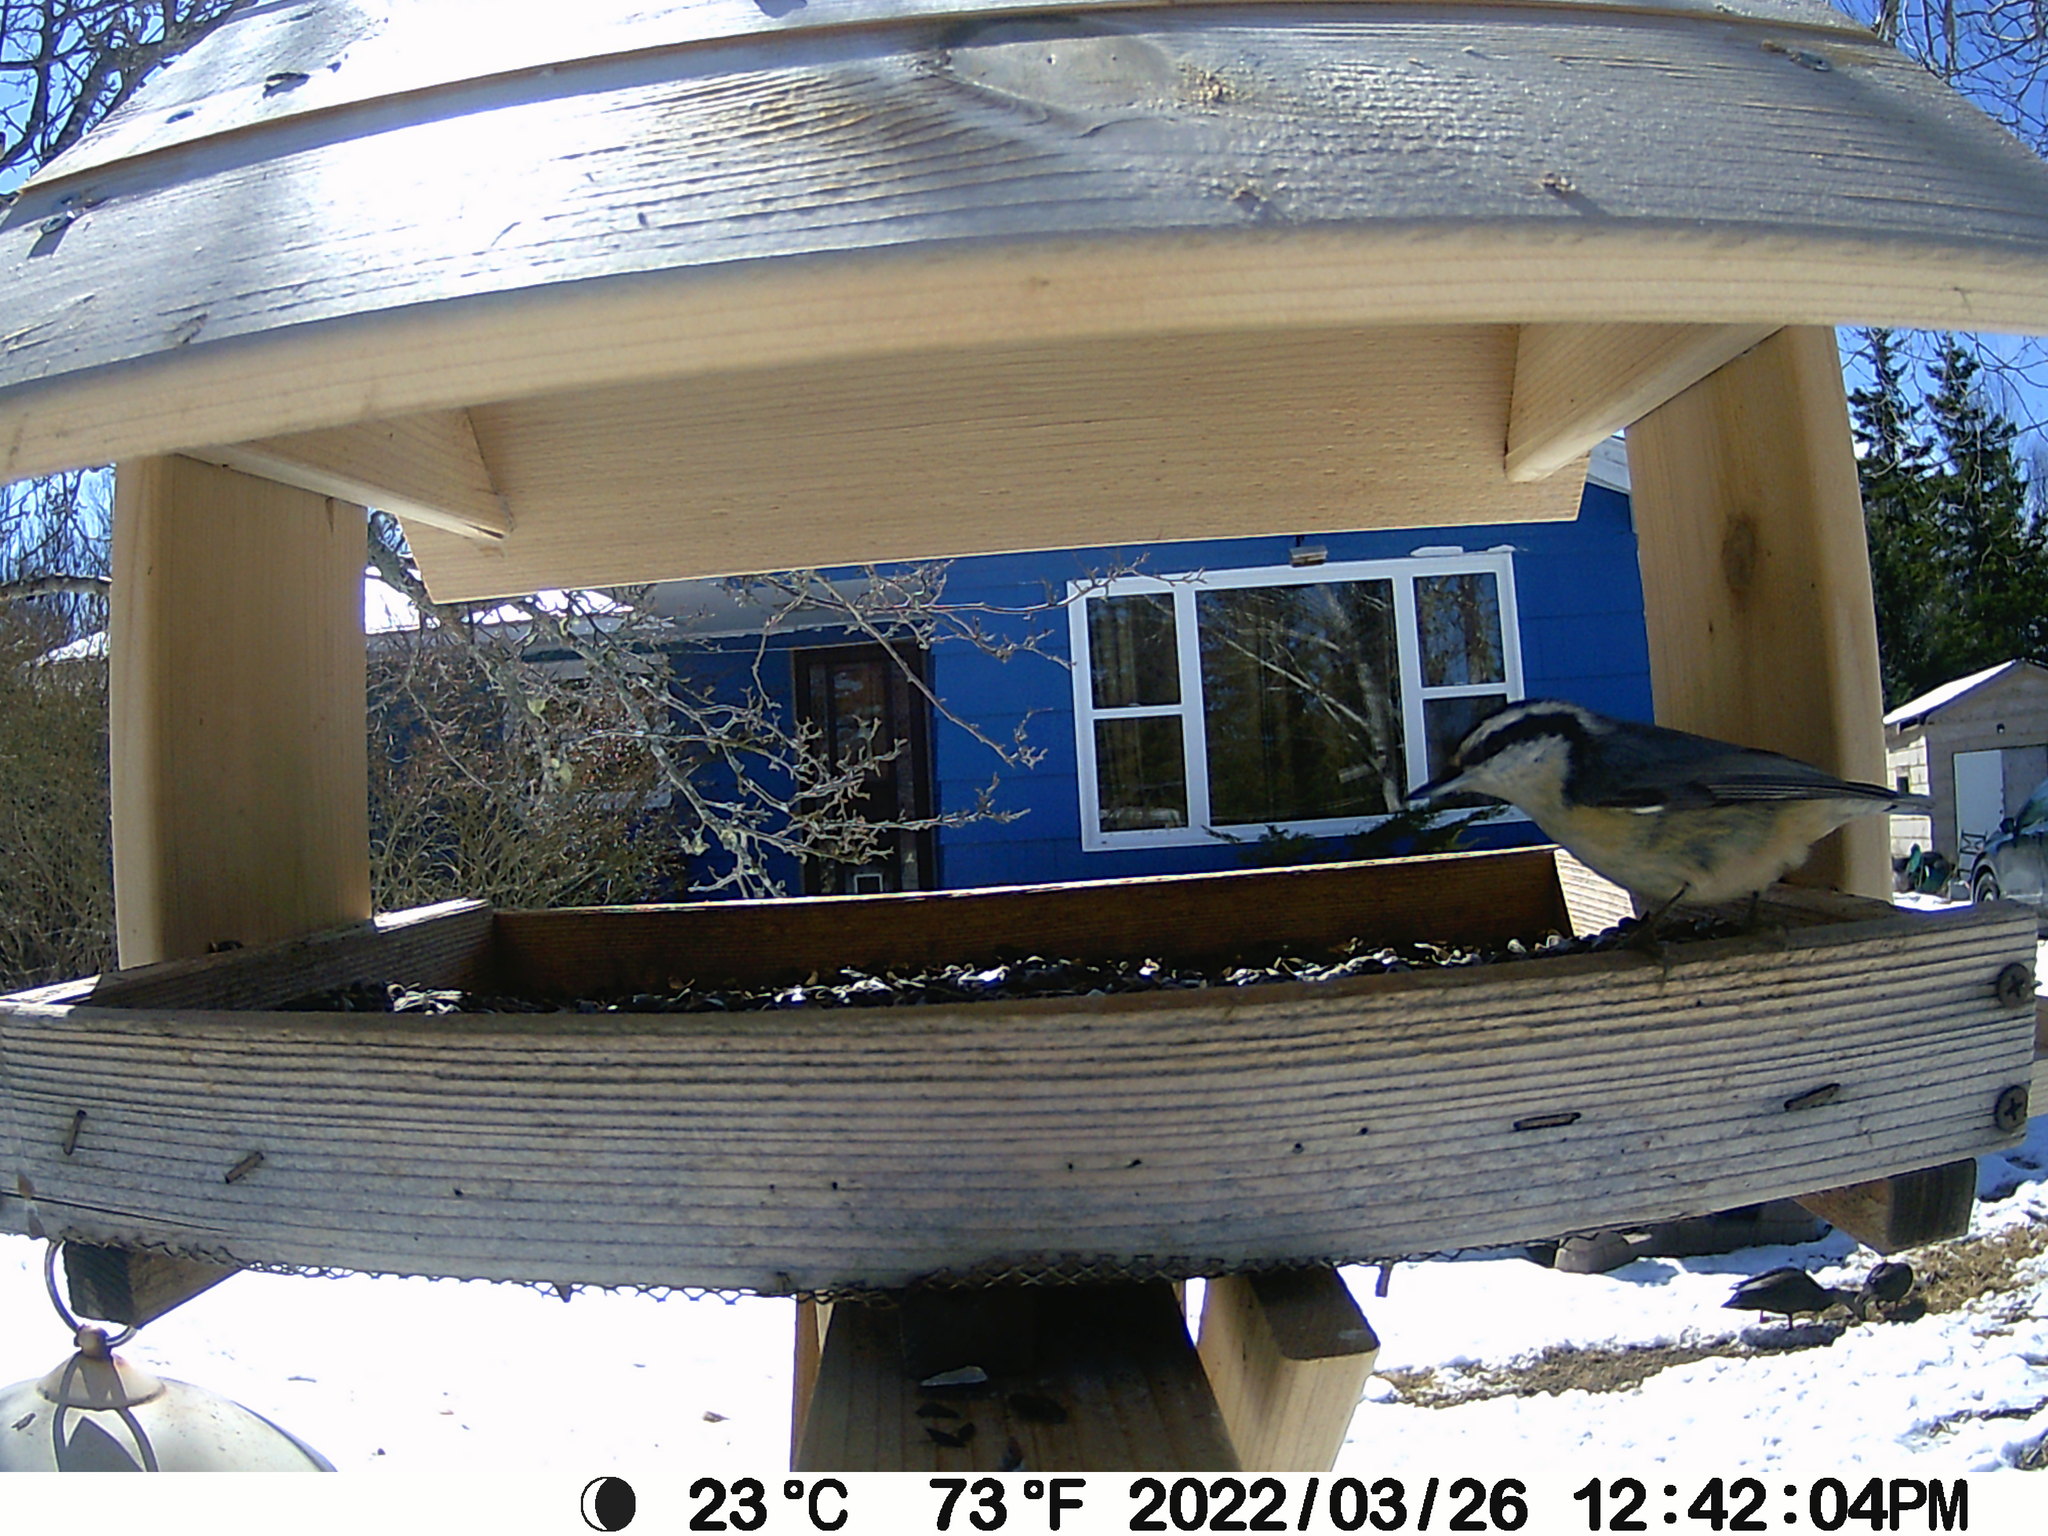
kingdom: Animalia
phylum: Chordata
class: Aves
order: Passeriformes
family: Sittidae
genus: Sitta
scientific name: Sitta canadensis
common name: Red-breasted nuthatch
